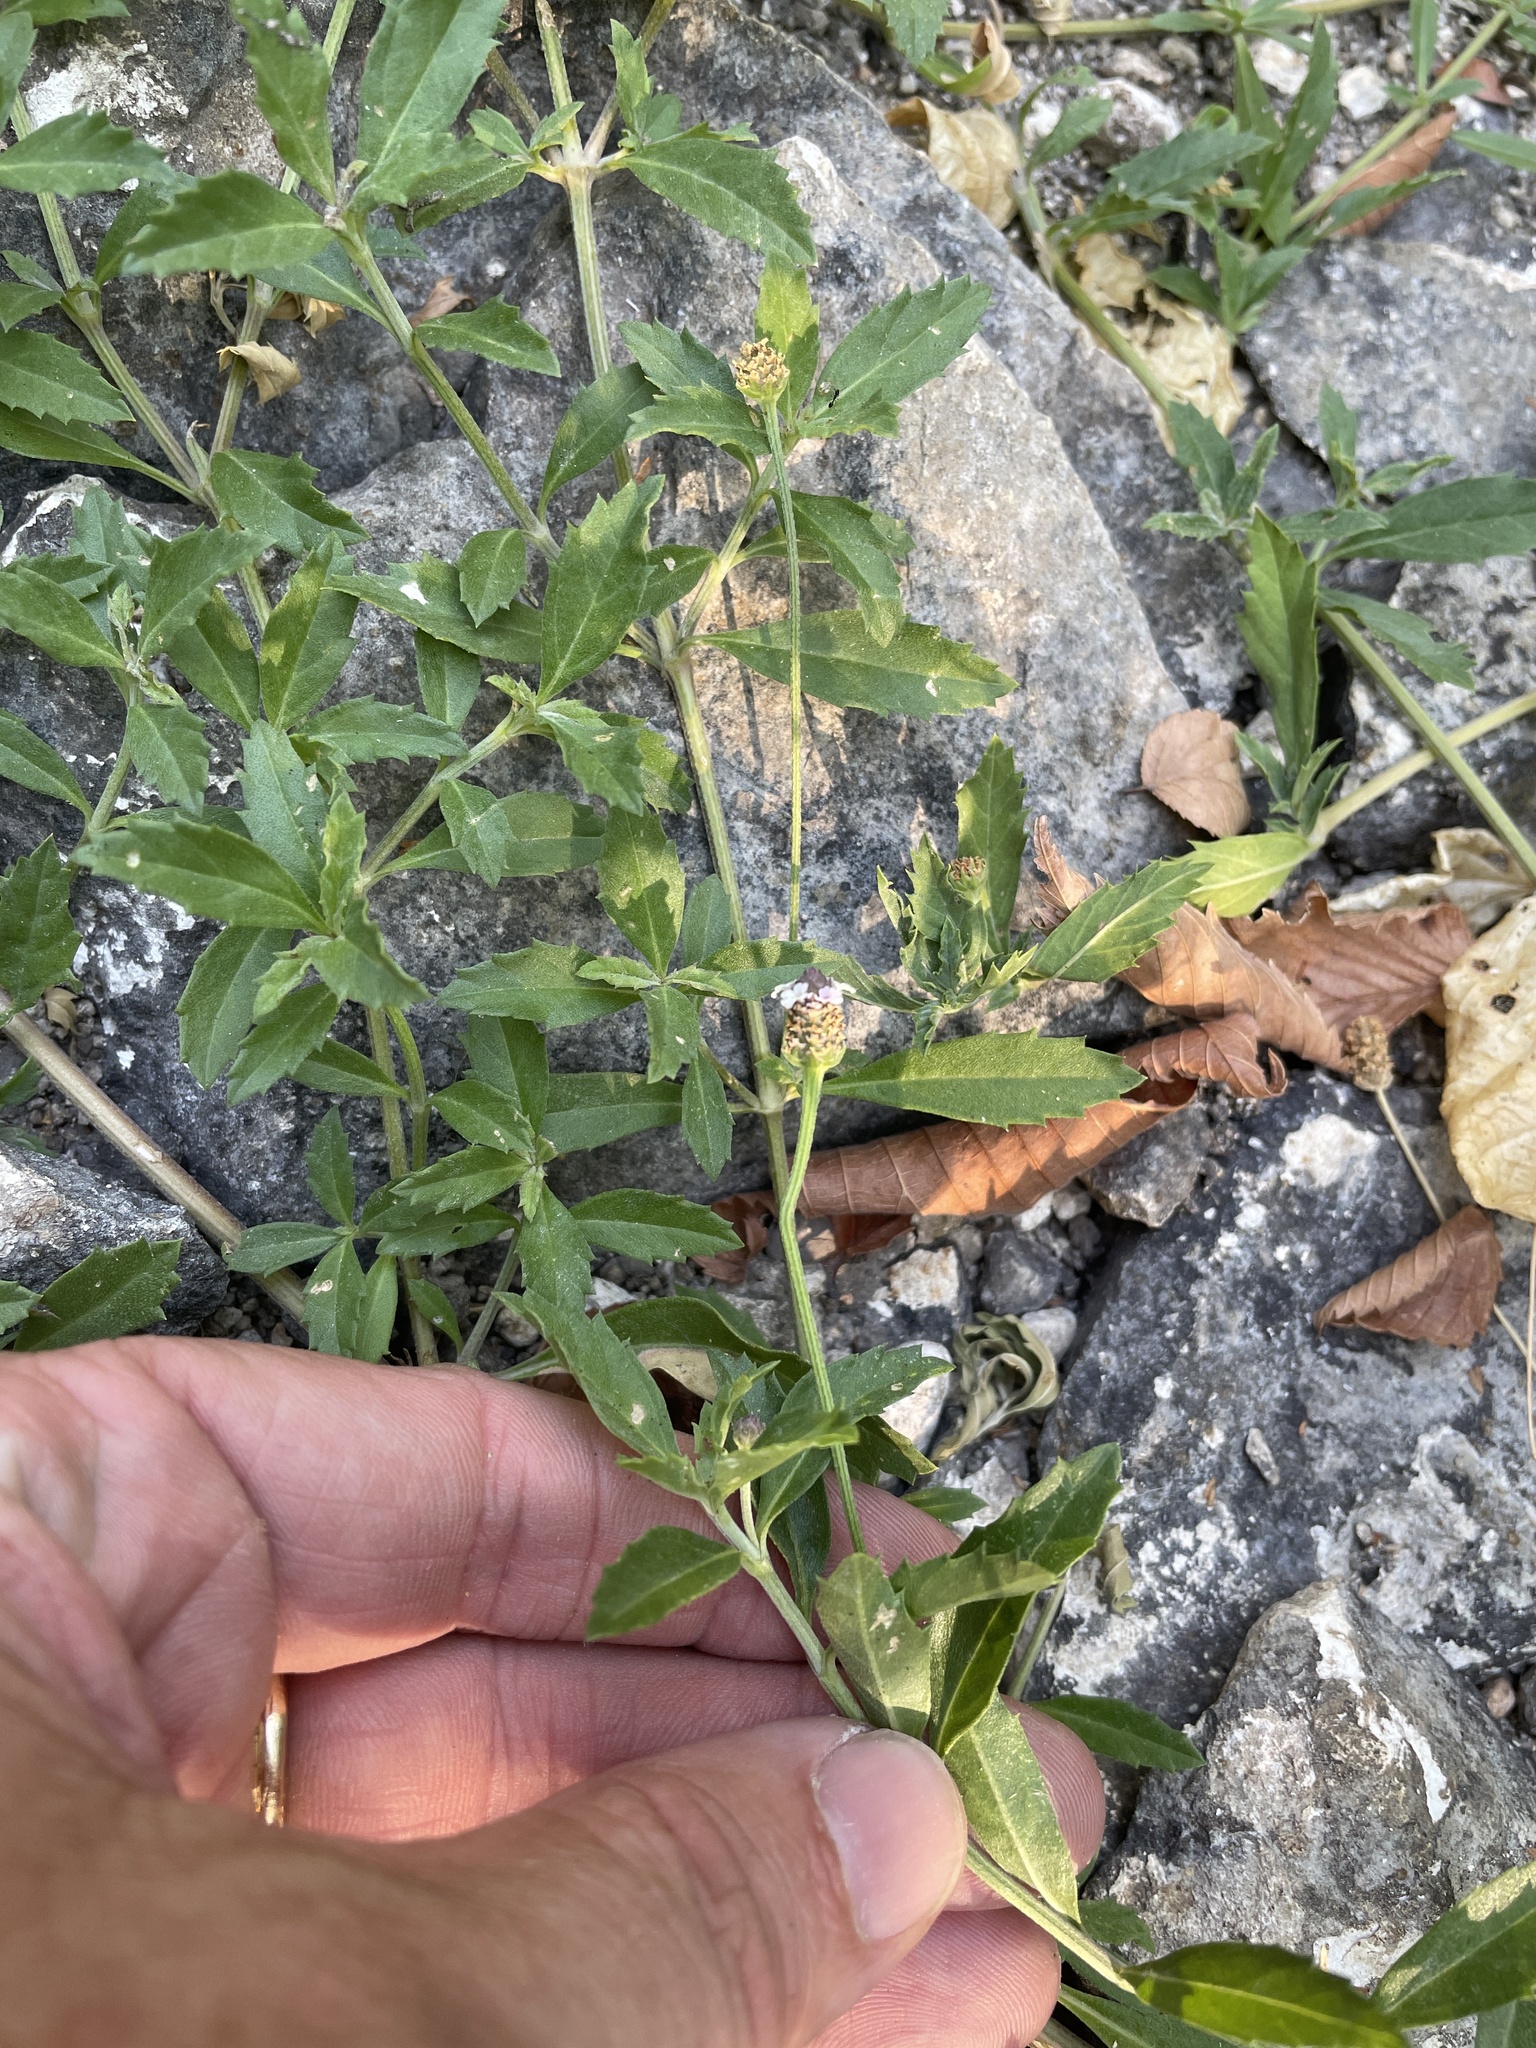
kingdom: Plantae
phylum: Tracheophyta
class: Magnoliopsida
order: Lamiales
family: Verbenaceae
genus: Phyla
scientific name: Phyla nodiflora
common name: Frogfruit
